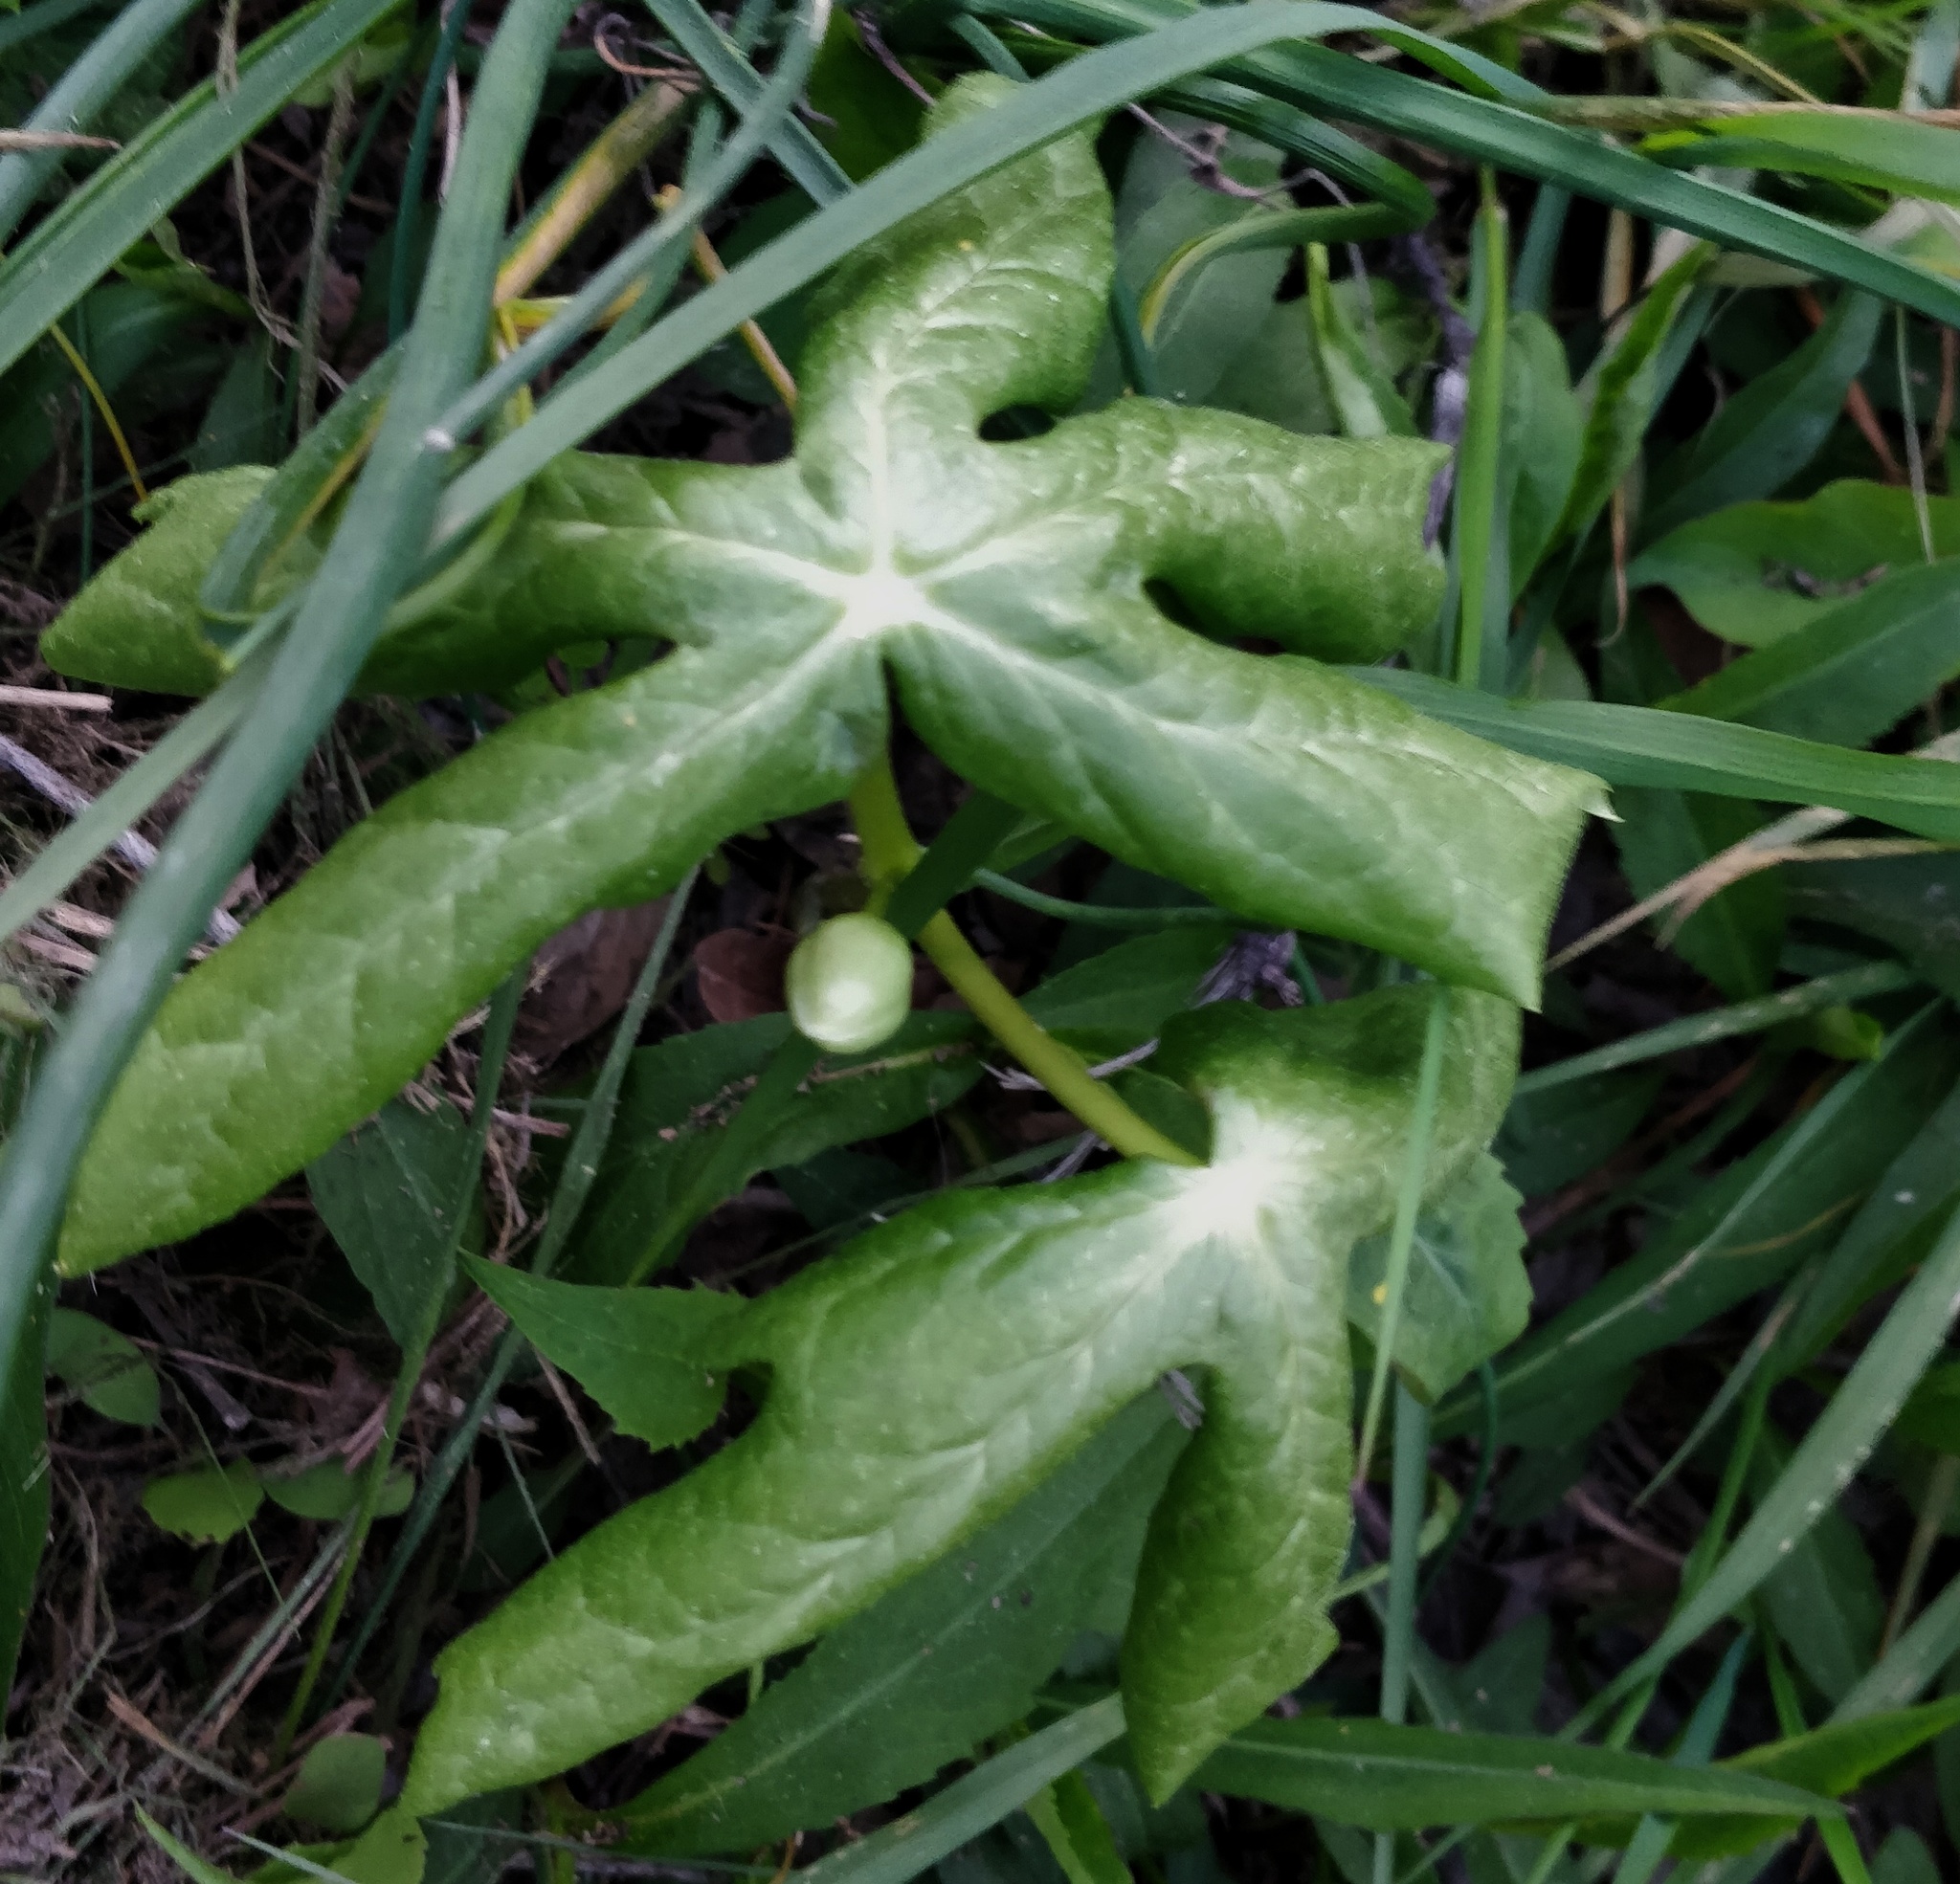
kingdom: Plantae
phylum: Tracheophyta
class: Magnoliopsida
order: Ranunculales
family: Berberidaceae
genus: Podophyllum
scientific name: Podophyllum peltatum
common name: Wild mandrake
